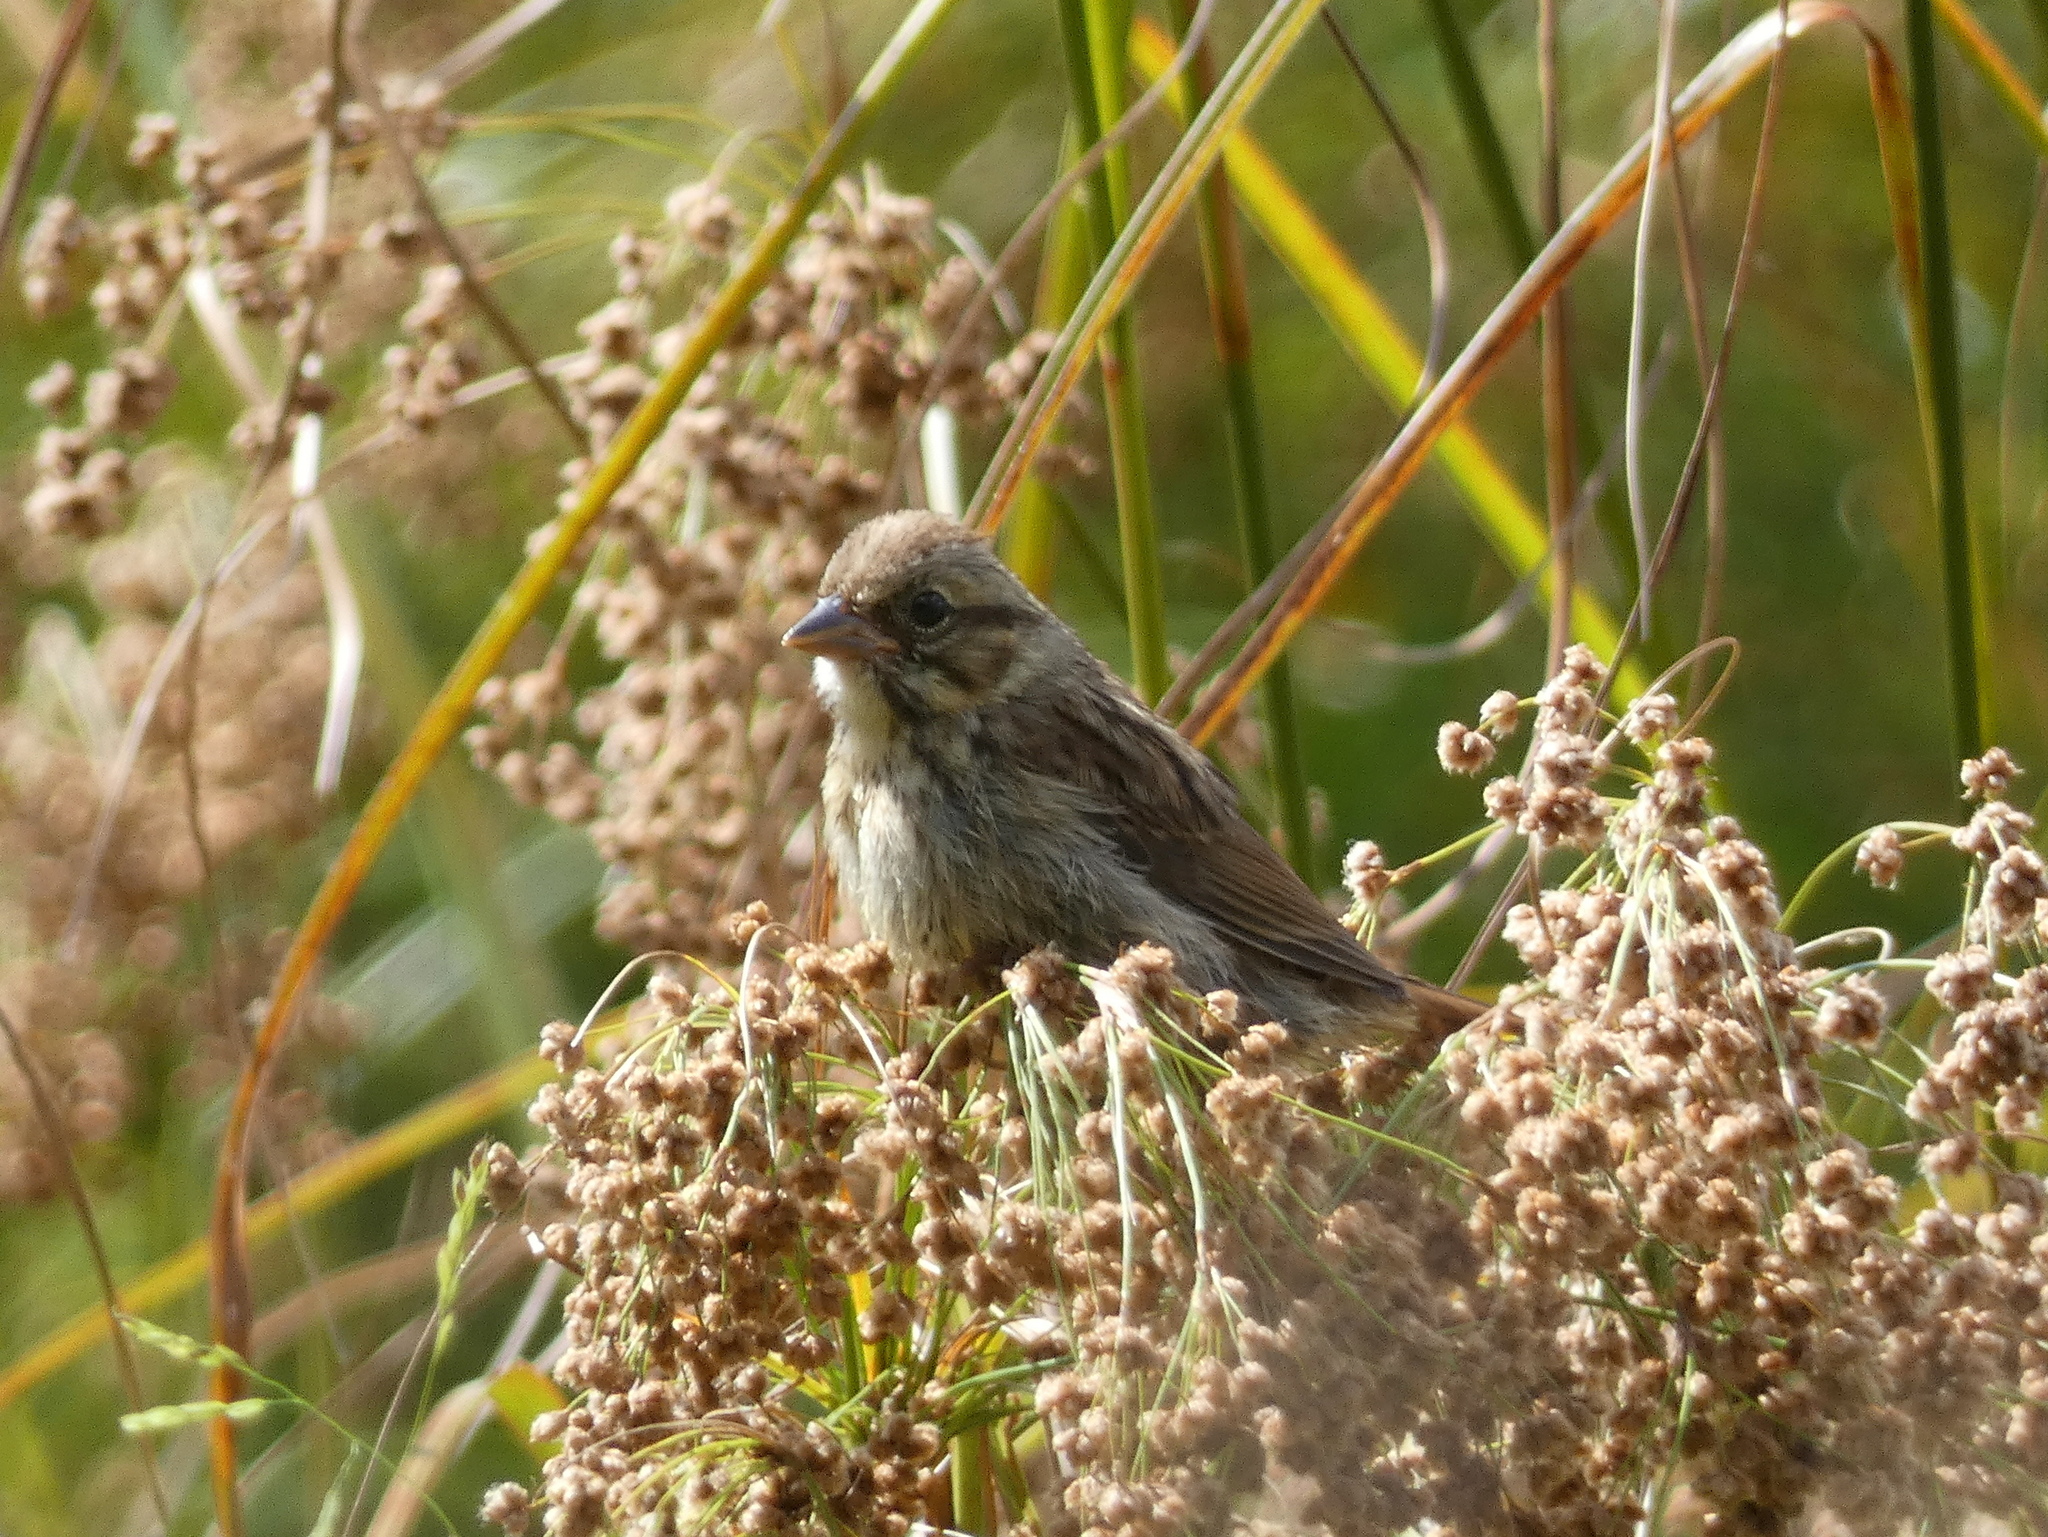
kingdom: Animalia
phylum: Chordata
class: Aves
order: Passeriformes
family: Passerellidae
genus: Melospiza
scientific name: Melospiza melodia
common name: Song sparrow
